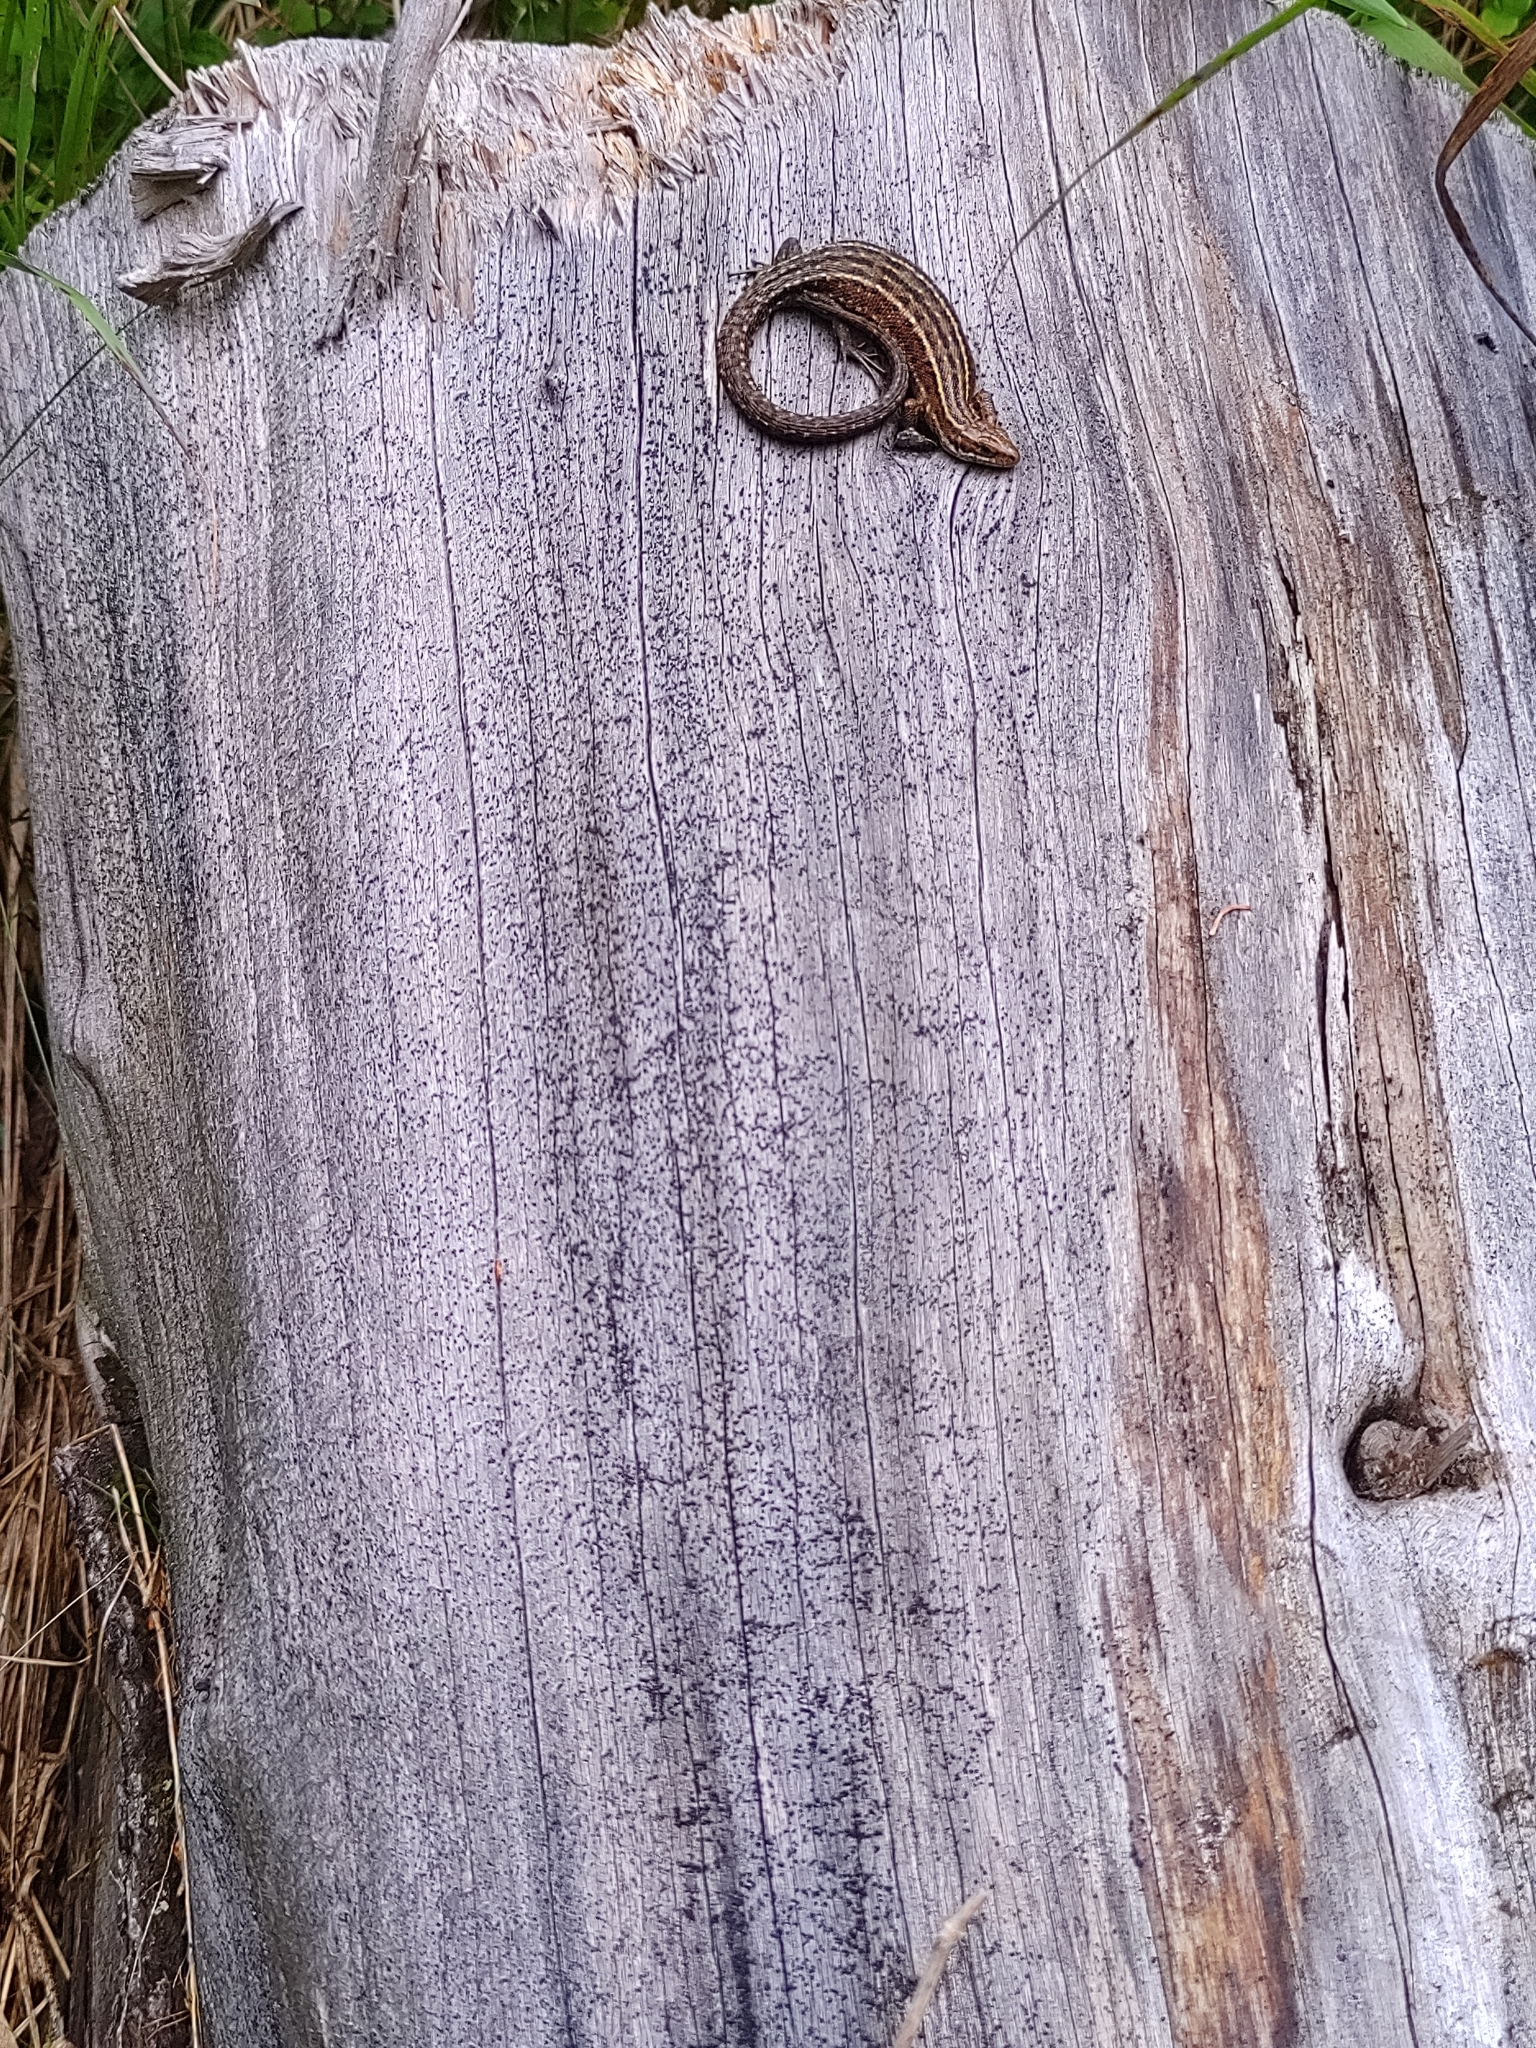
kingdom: Animalia
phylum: Chordata
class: Squamata
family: Lacertidae
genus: Zootoca
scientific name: Zootoca vivipara
